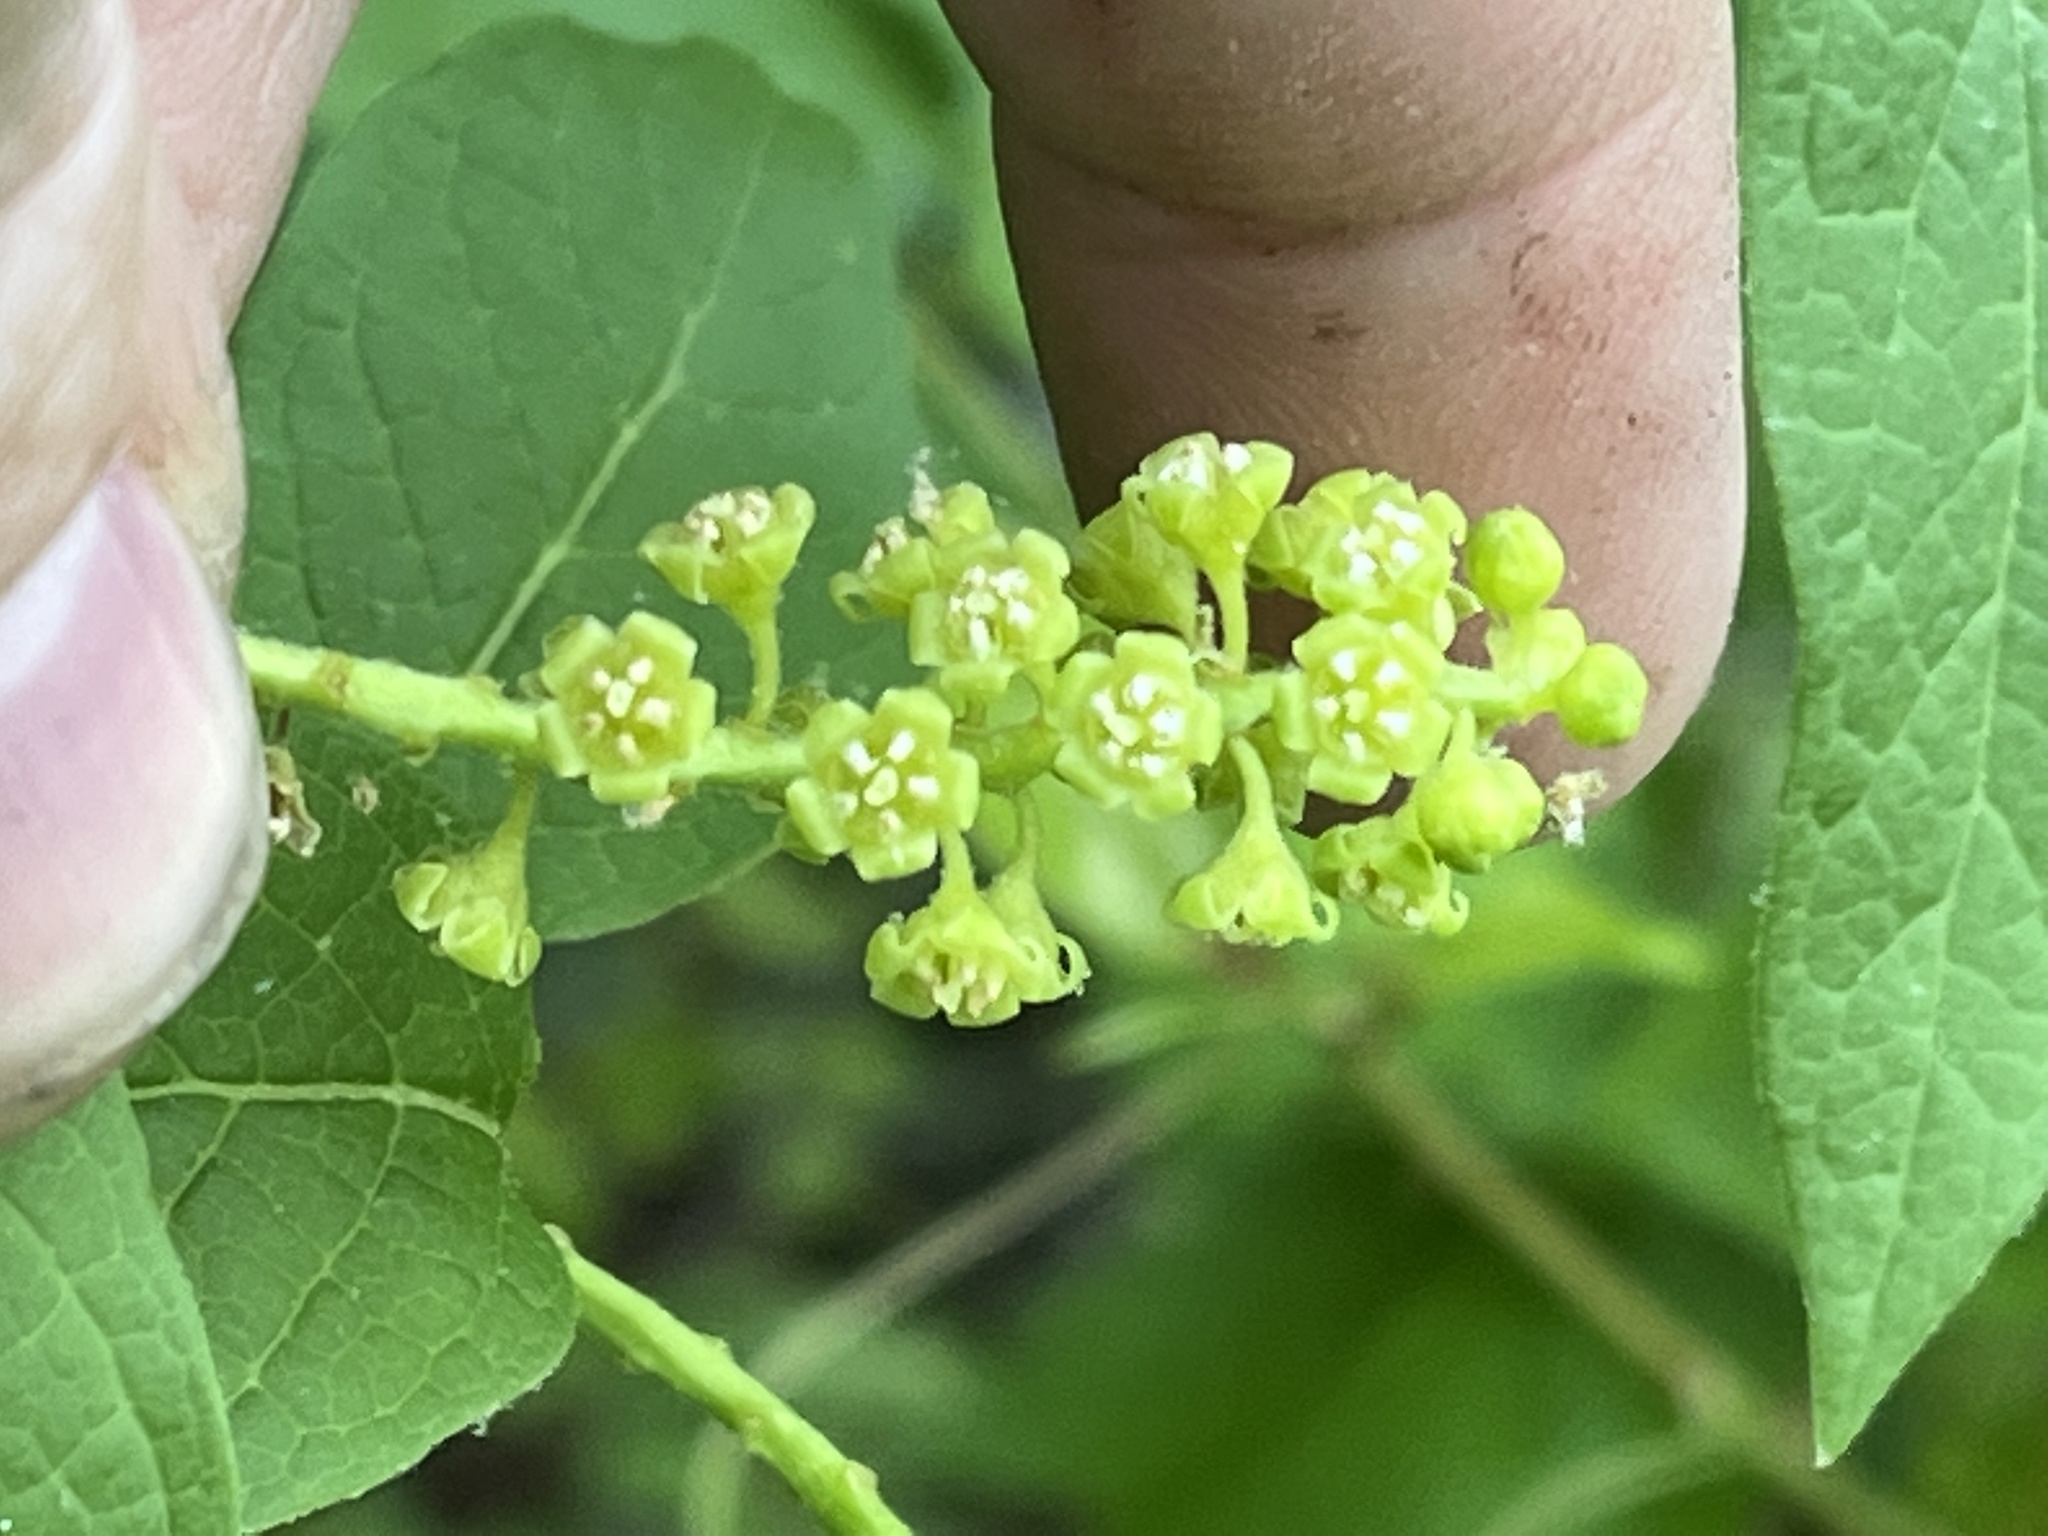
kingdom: Plantae
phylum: Tracheophyta
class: Magnoliopsida
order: Santalales
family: Cervantesiaceae
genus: Pyrularia
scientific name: Pyrularia pubera
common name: Oilnut
